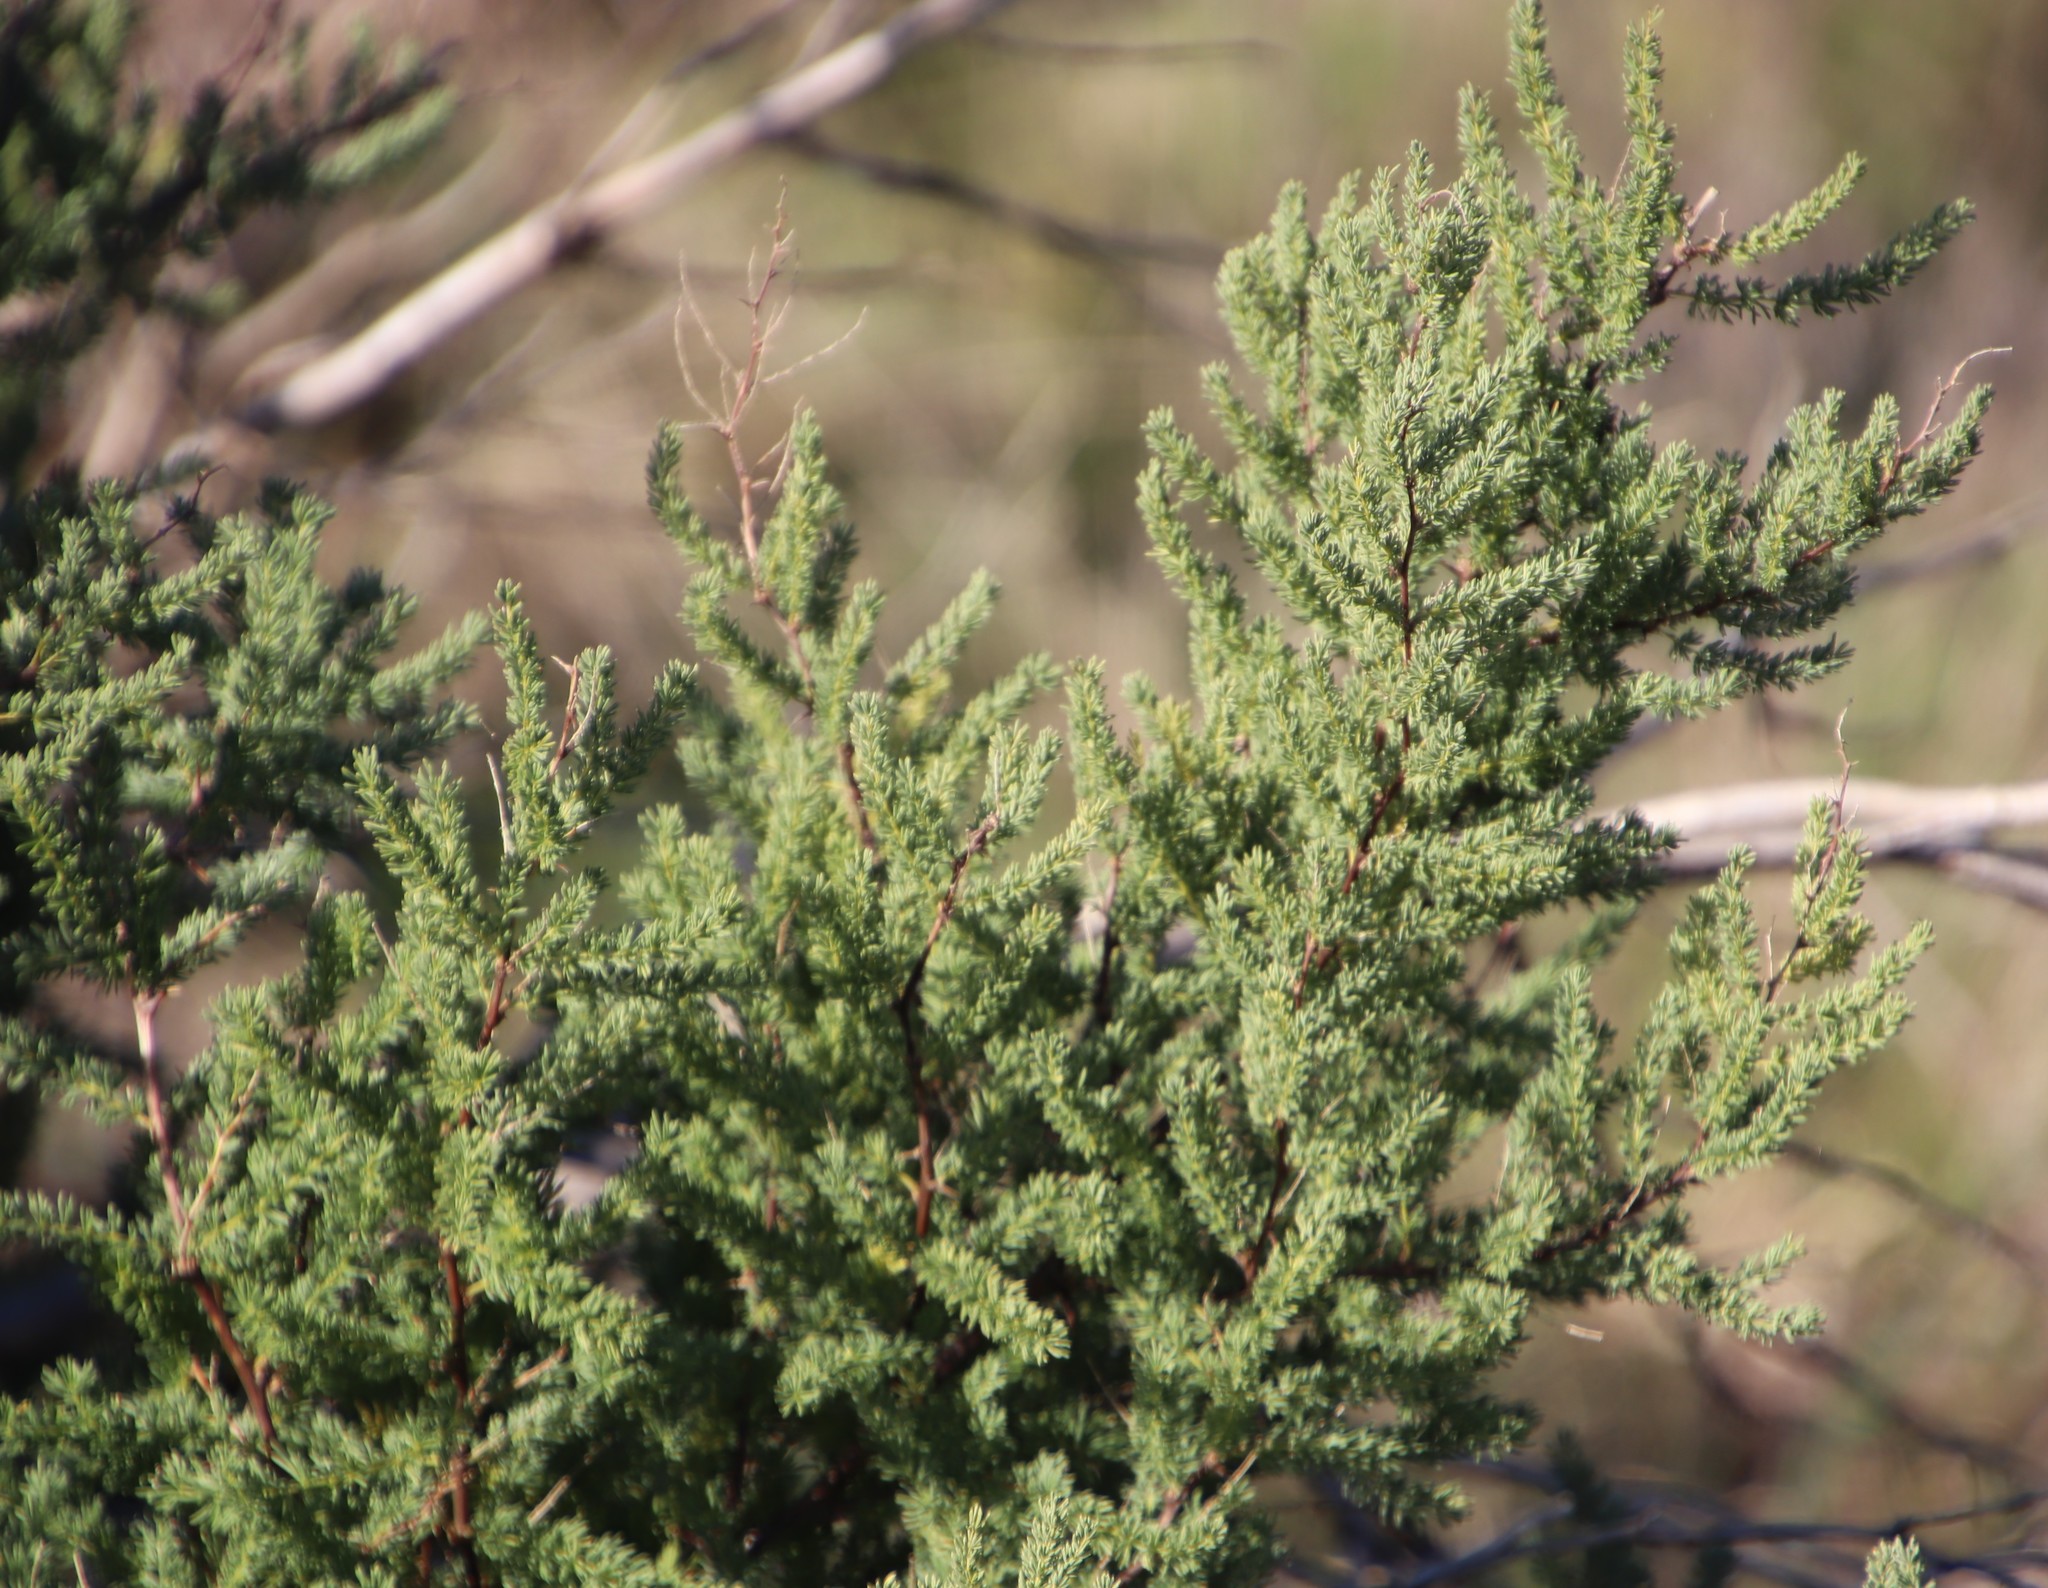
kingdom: Plantae
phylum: Tracheophyta
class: Liliopsida
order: Asparagales
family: Asparagaceae
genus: Asparagus
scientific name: Asparagus rubicundus
